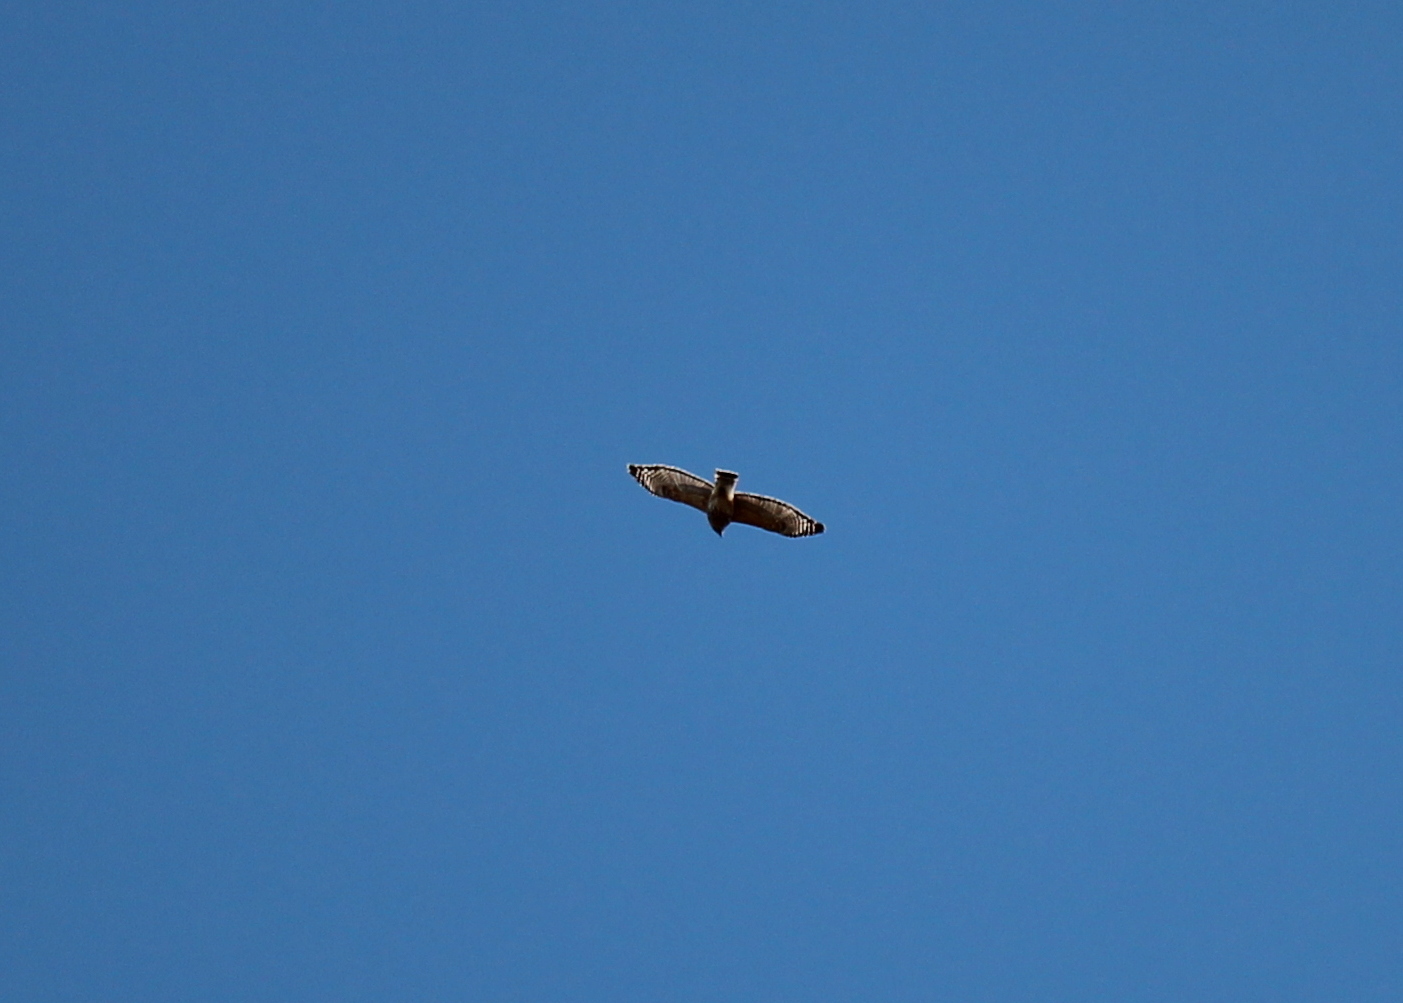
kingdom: Animalia
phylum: Chordata
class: Aves
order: Accipitriformes
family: Accipitridae
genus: Buteo
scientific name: Buteo lineatus
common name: Red-shouldered hawk
